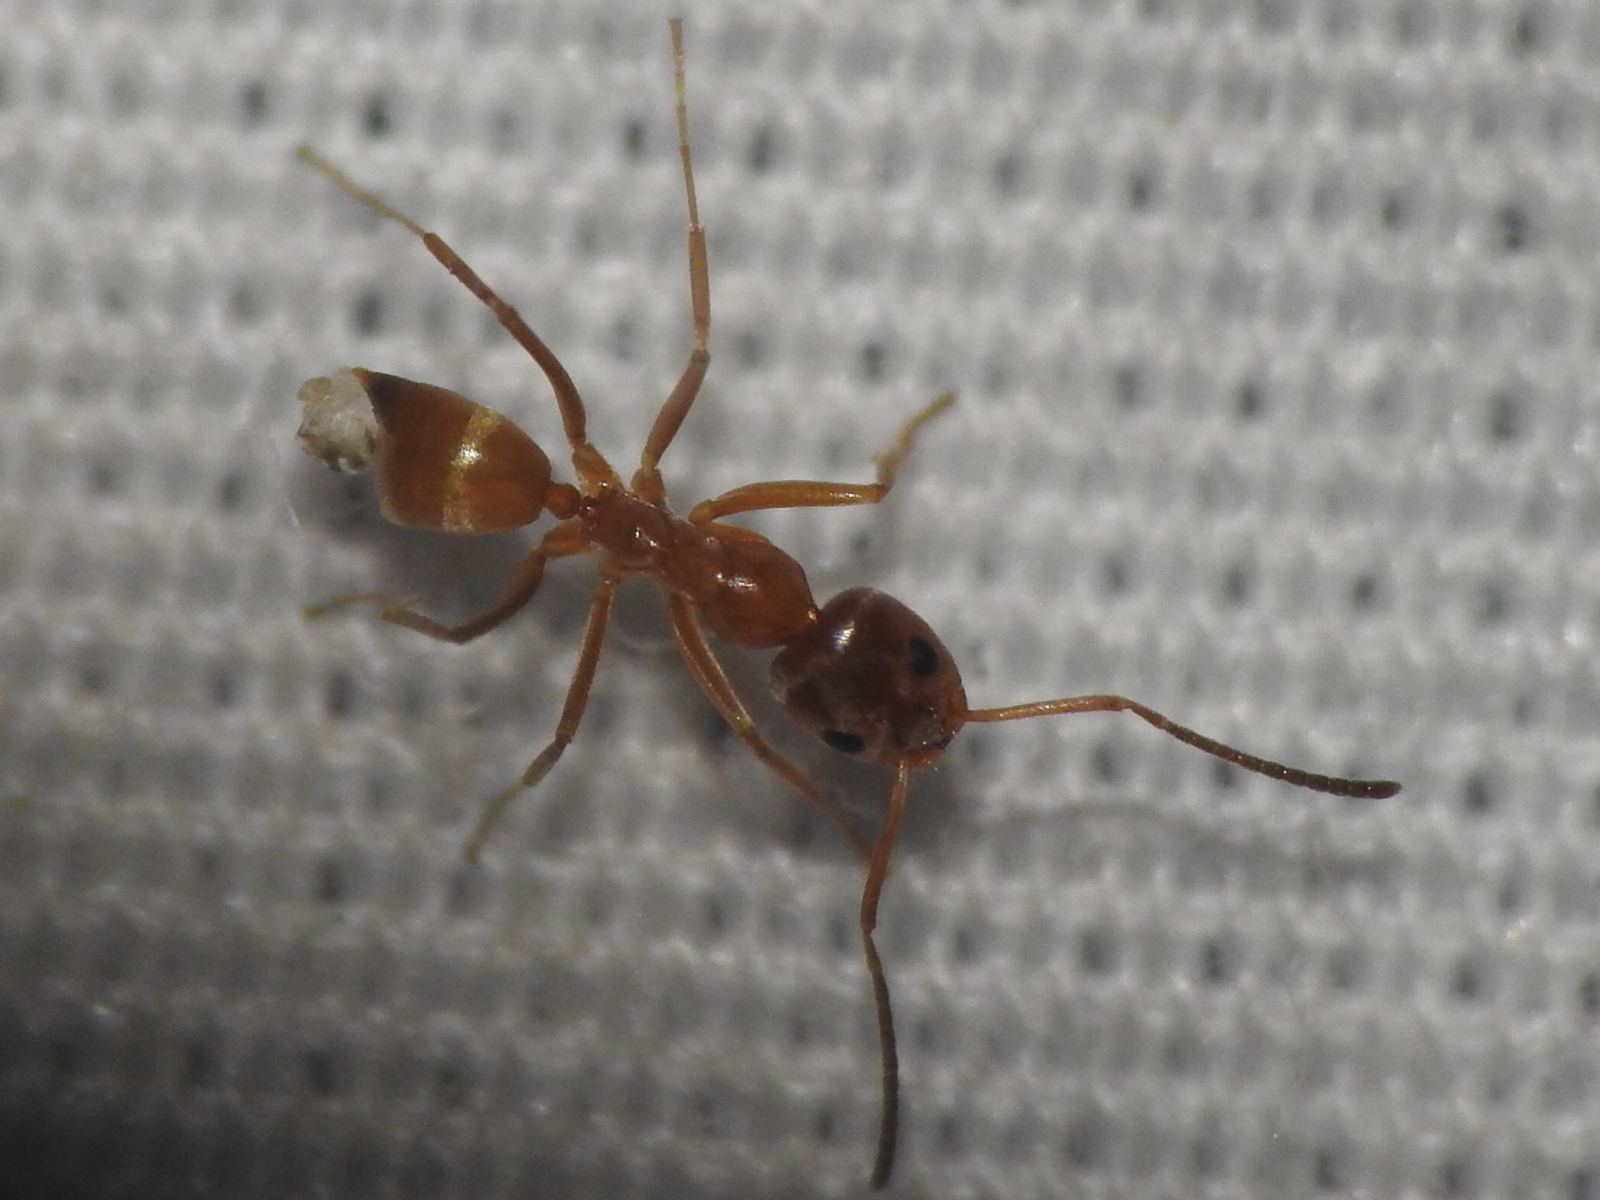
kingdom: Animalia
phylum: Arthropoda
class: Insecta
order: Hymenoptera
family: Formicidae
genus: Dorymyrmex
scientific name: Dorymyrmex flavus
